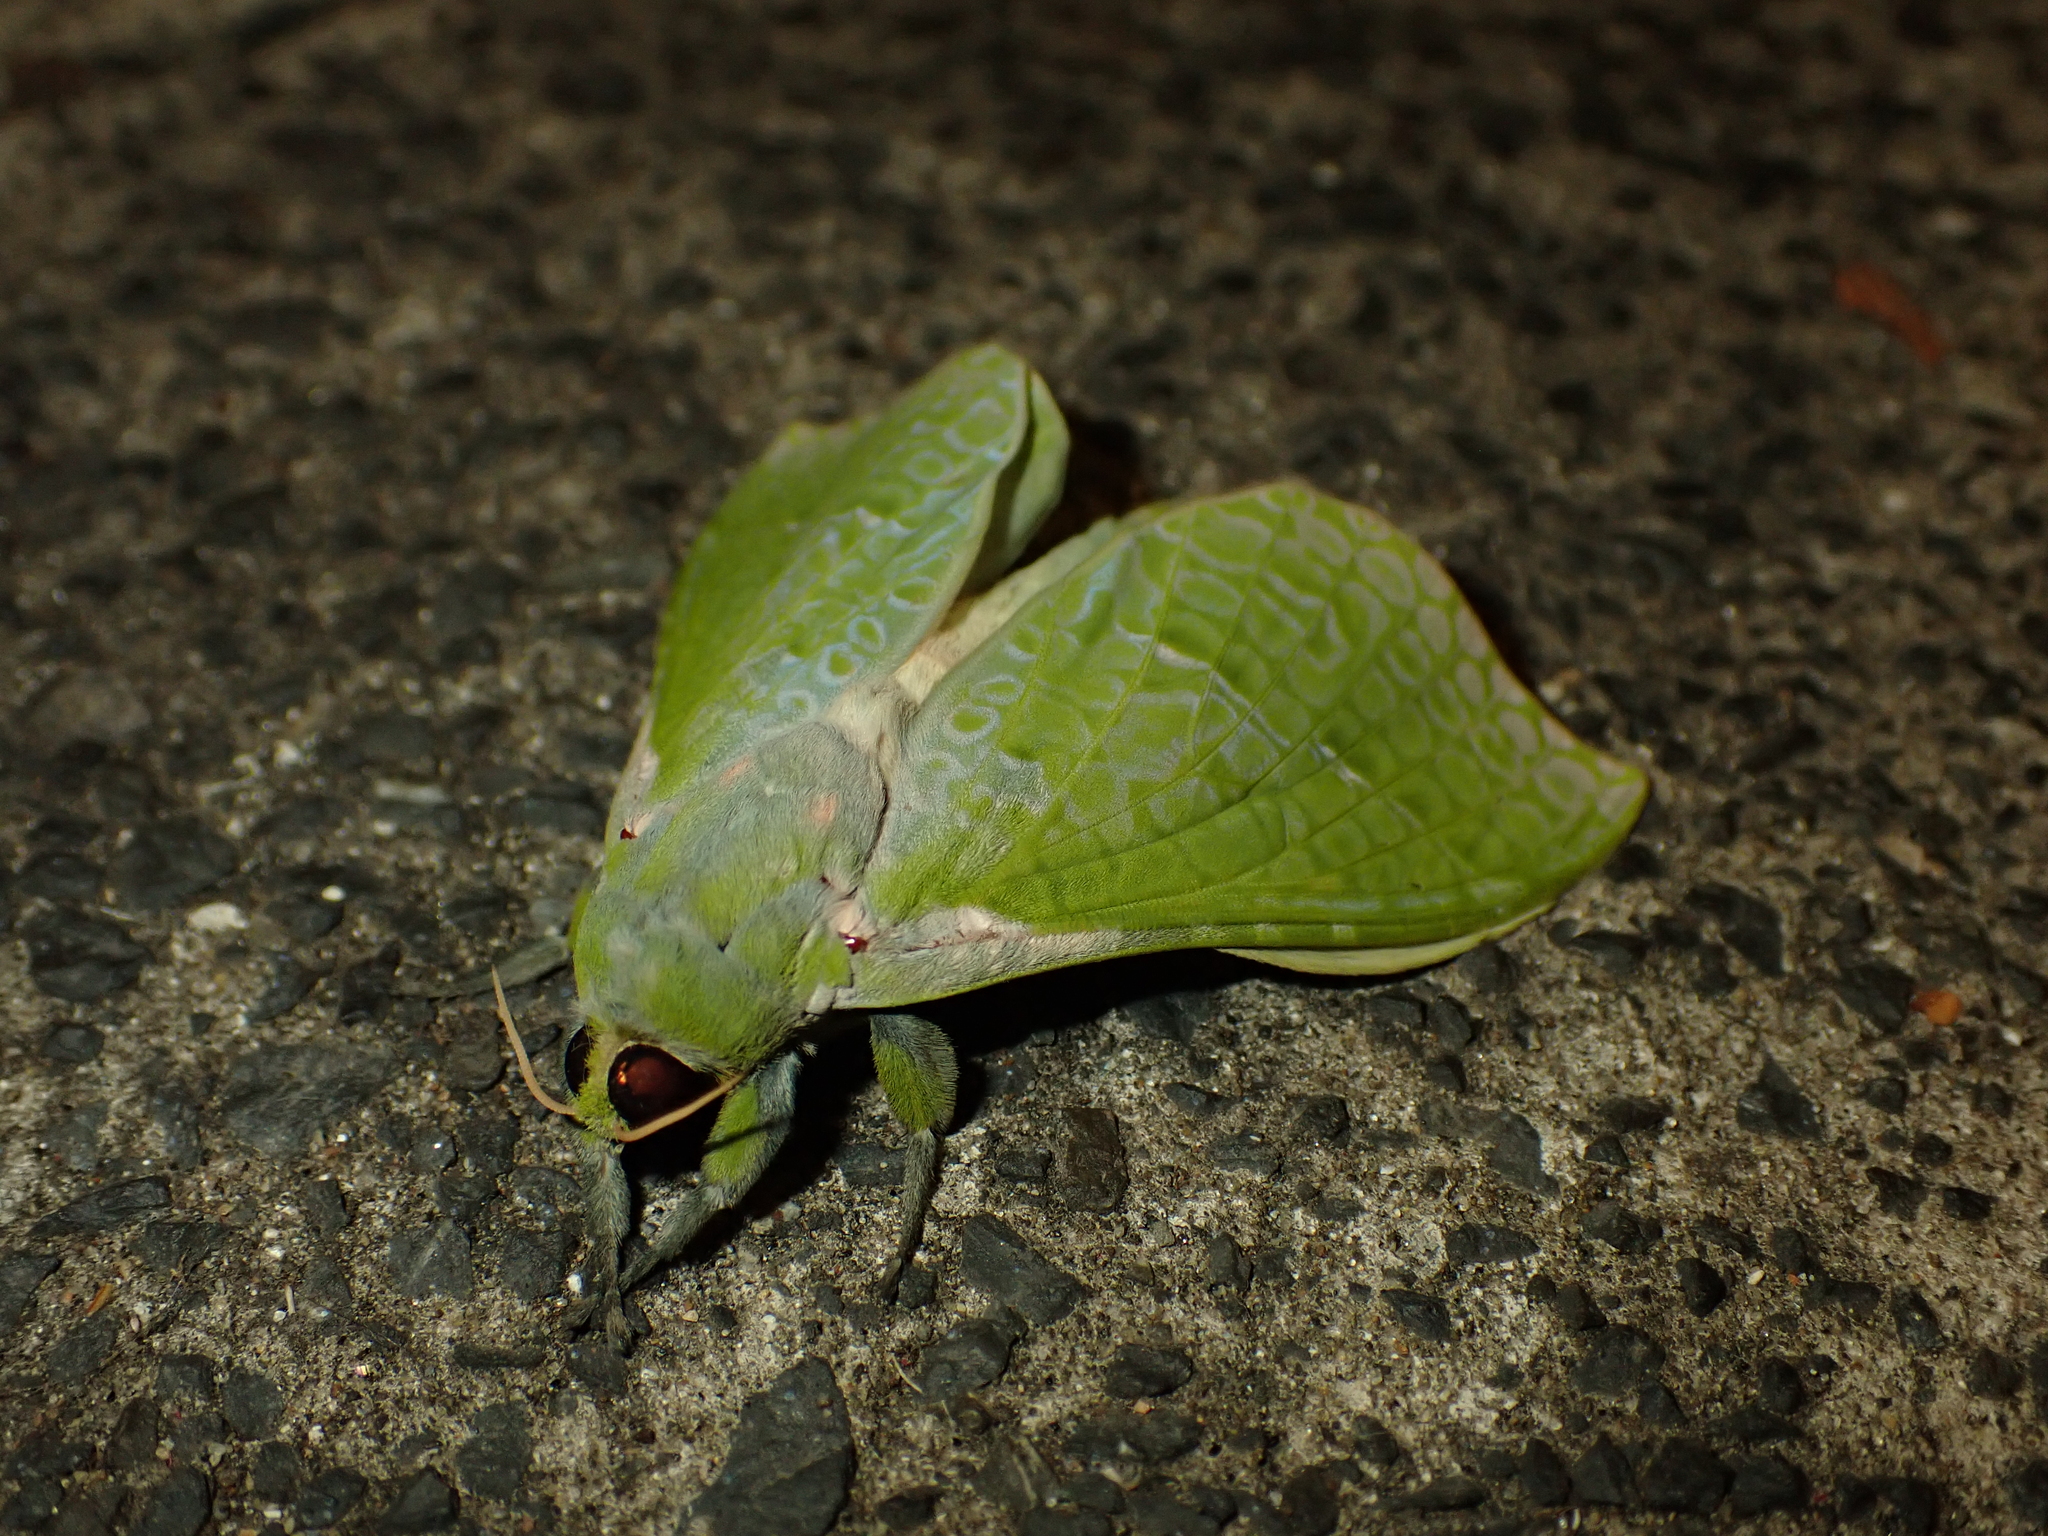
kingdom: Animalia
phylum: Arthropoda
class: Insecta
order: Lepidoptera
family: Hepialidae
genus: Aenetus
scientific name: Aenetus virescens
